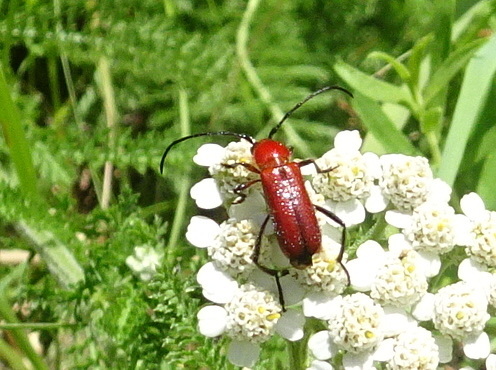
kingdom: Animalia
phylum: Arthropoda
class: Insecta
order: Coleoptera
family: Cerambycidae
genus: Batyle
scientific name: Batyle suturalis
